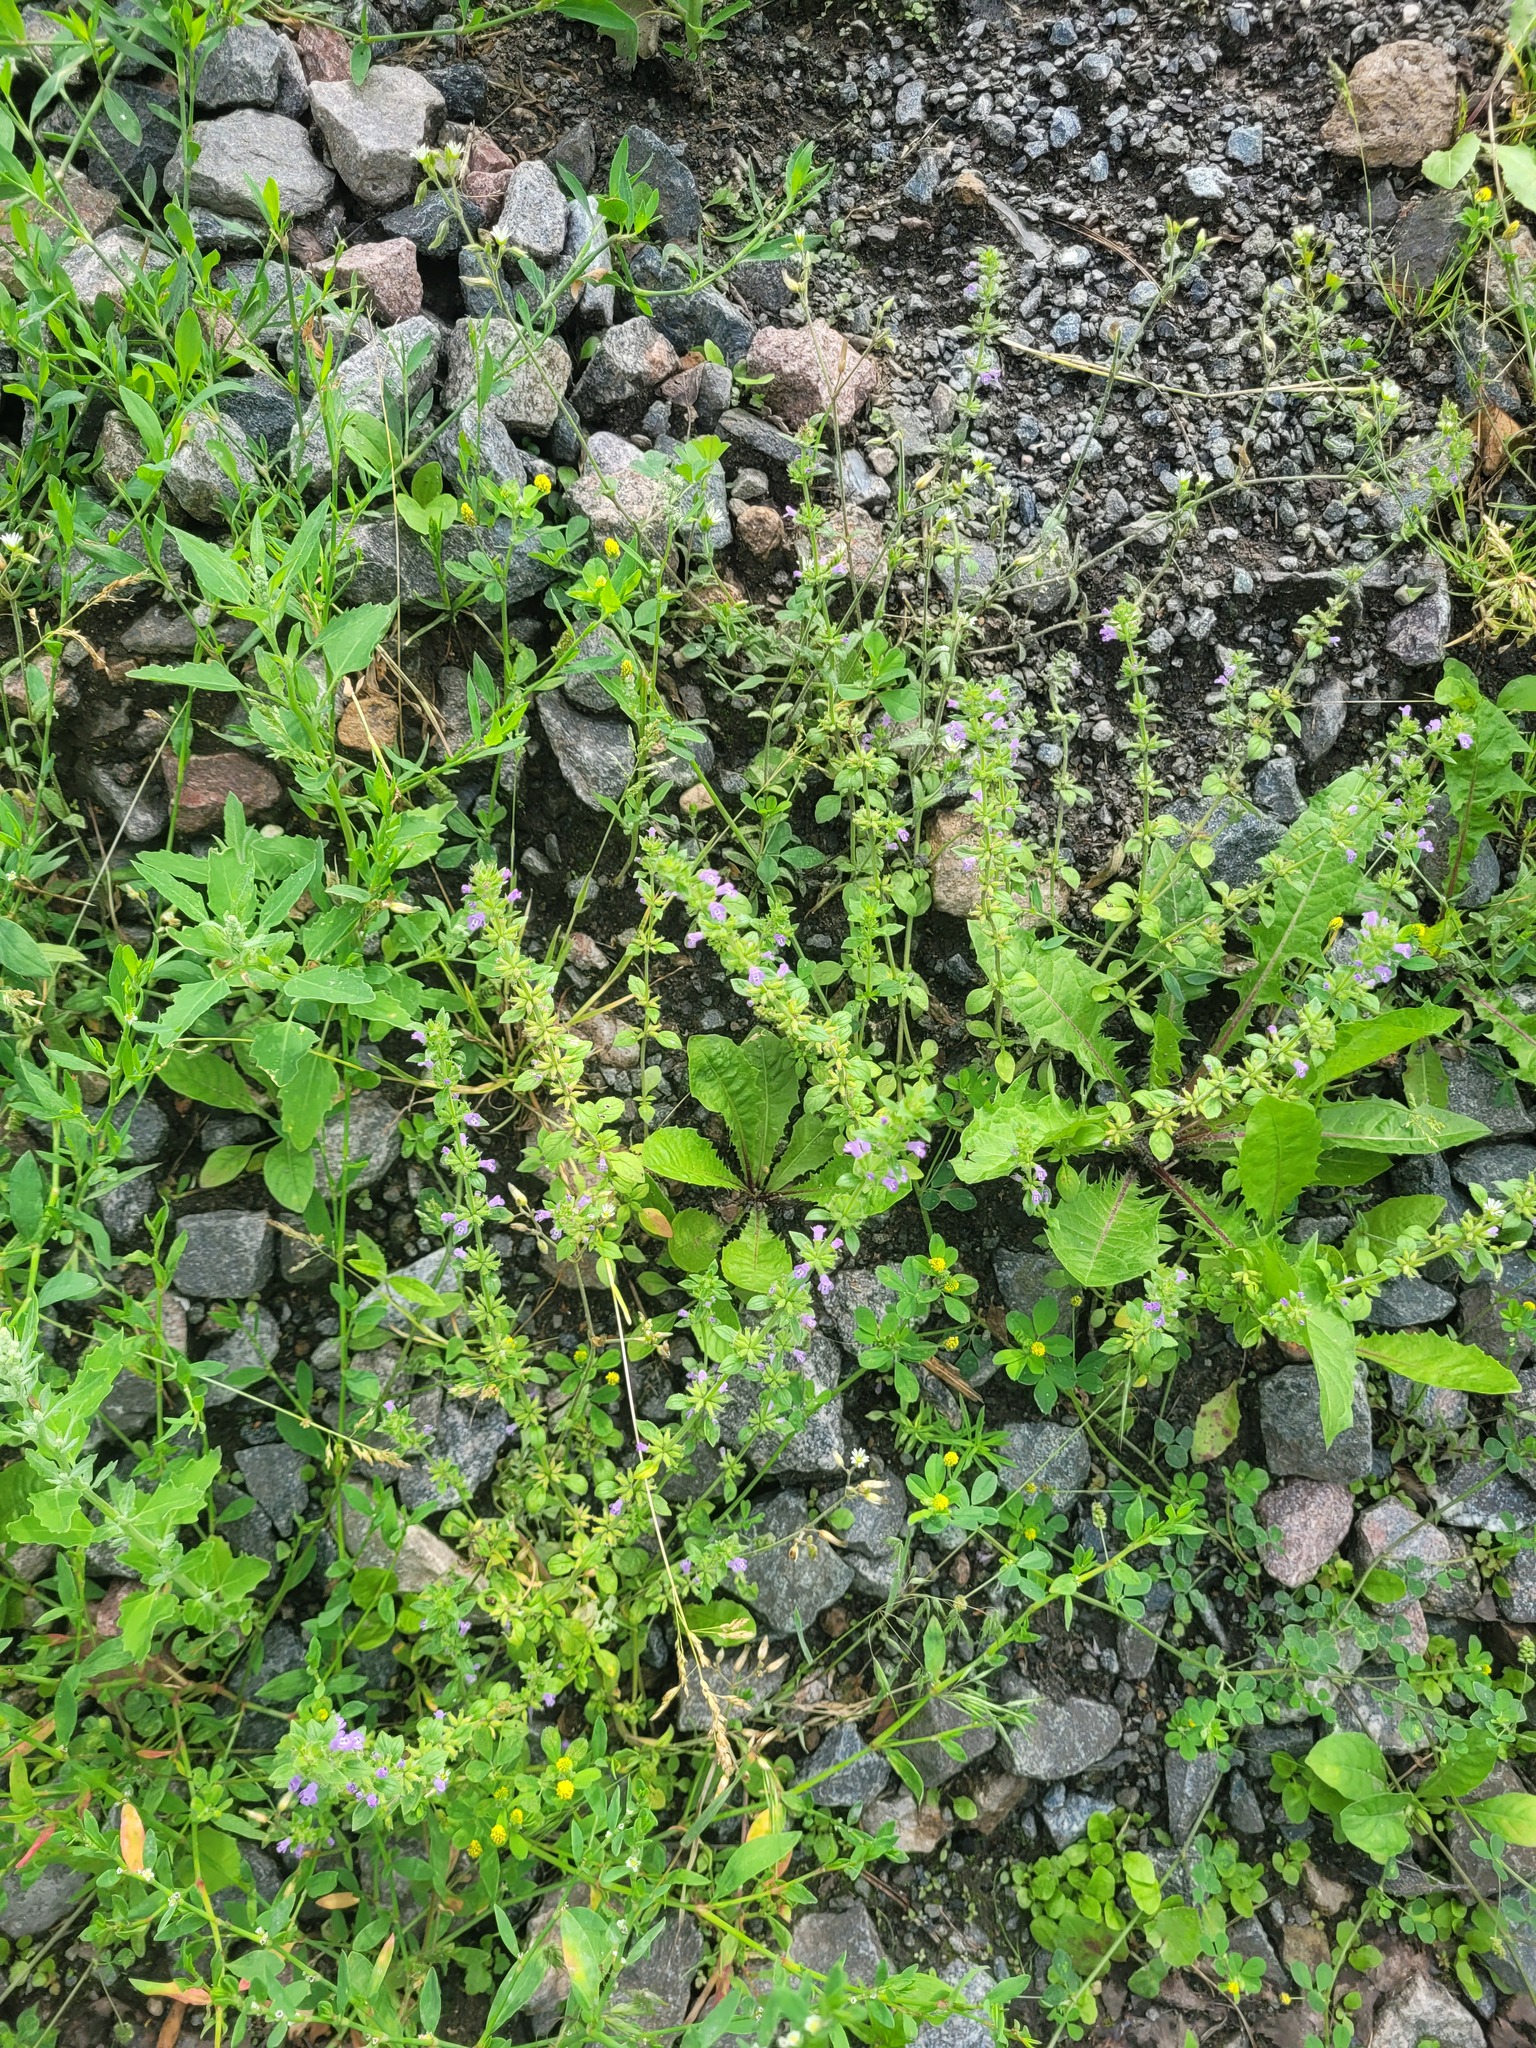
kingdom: Plantae
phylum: Tracheophyta
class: Magnoliopsida
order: Lamiales
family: Lamiaceae
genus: Clinopodium
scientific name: Clinopodium acinos
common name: Basil thyme
